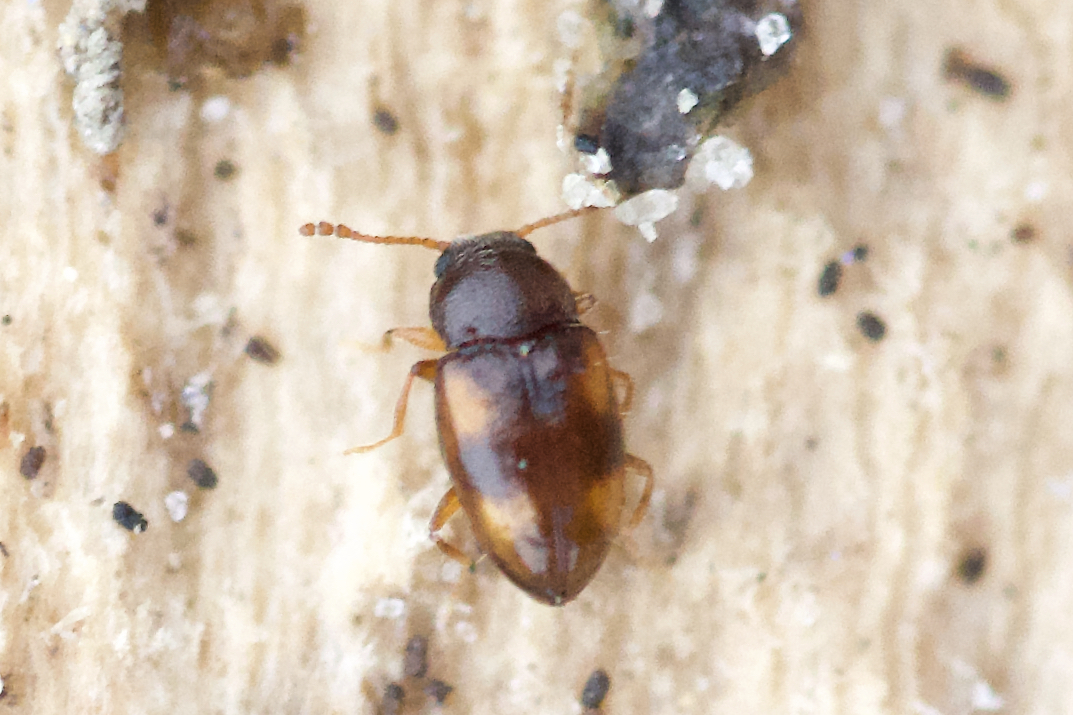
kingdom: Animalia
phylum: Arthropoda
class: Insecta
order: Coleoptera
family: Erotylidae
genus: Toramus
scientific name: Toramus pulchellus
